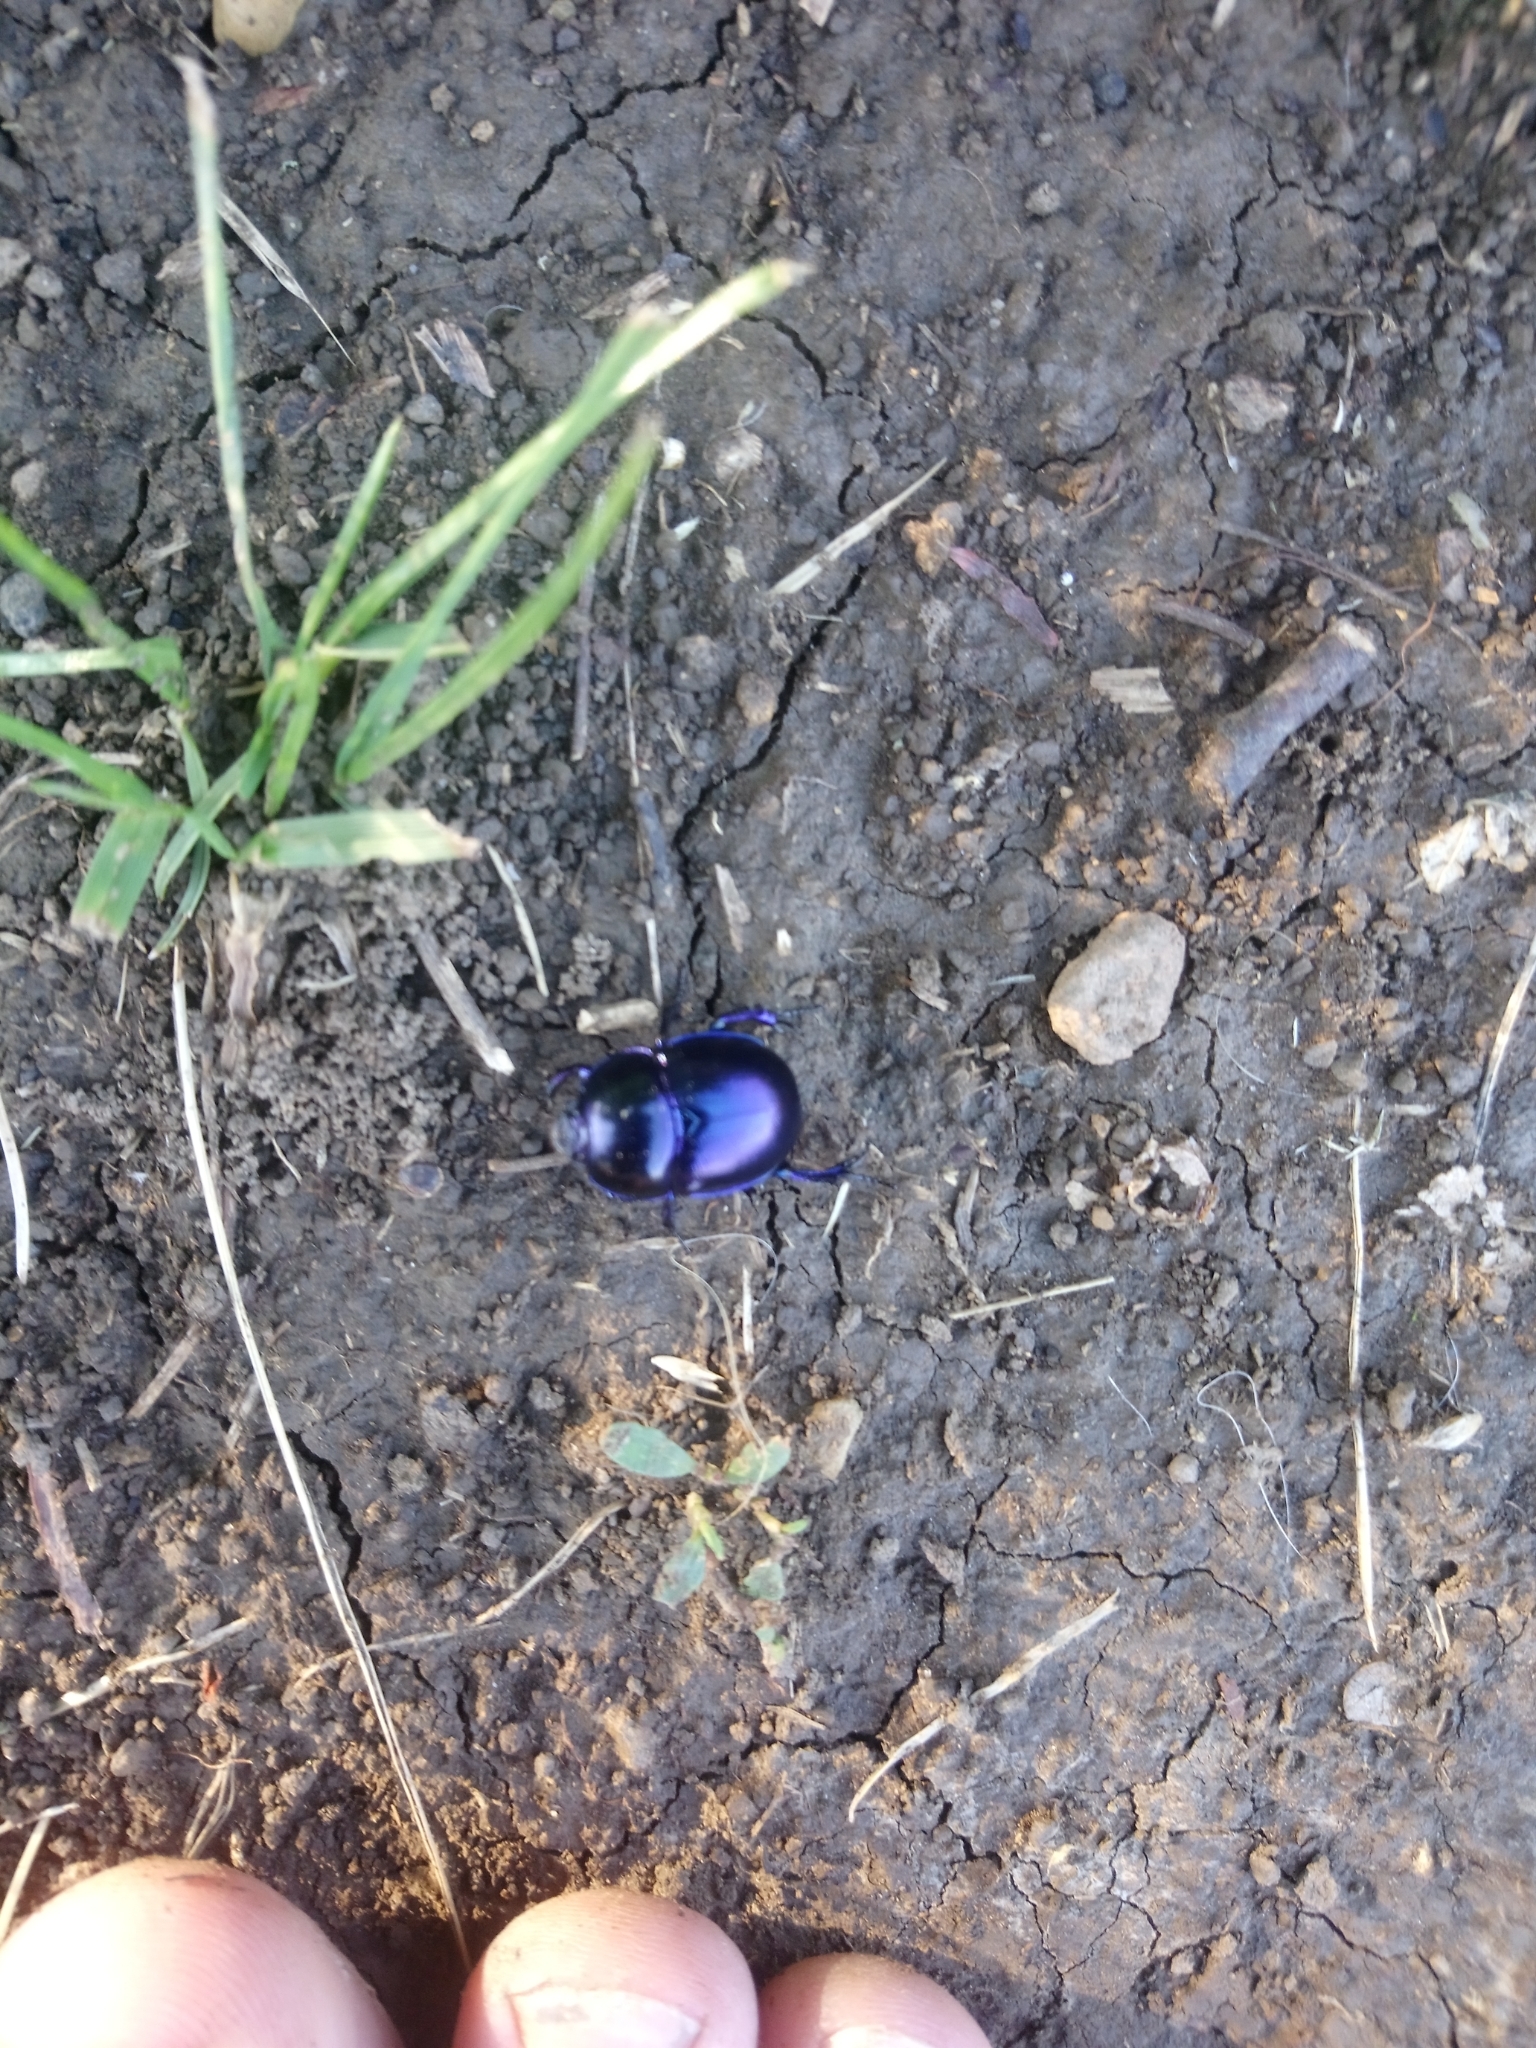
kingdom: Animalia
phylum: Arthropoda
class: Insecta
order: Coleoptera
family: Geotrupidae
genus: Trypocopris
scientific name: Trypocopris vernalis
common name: Spring dumbledor
